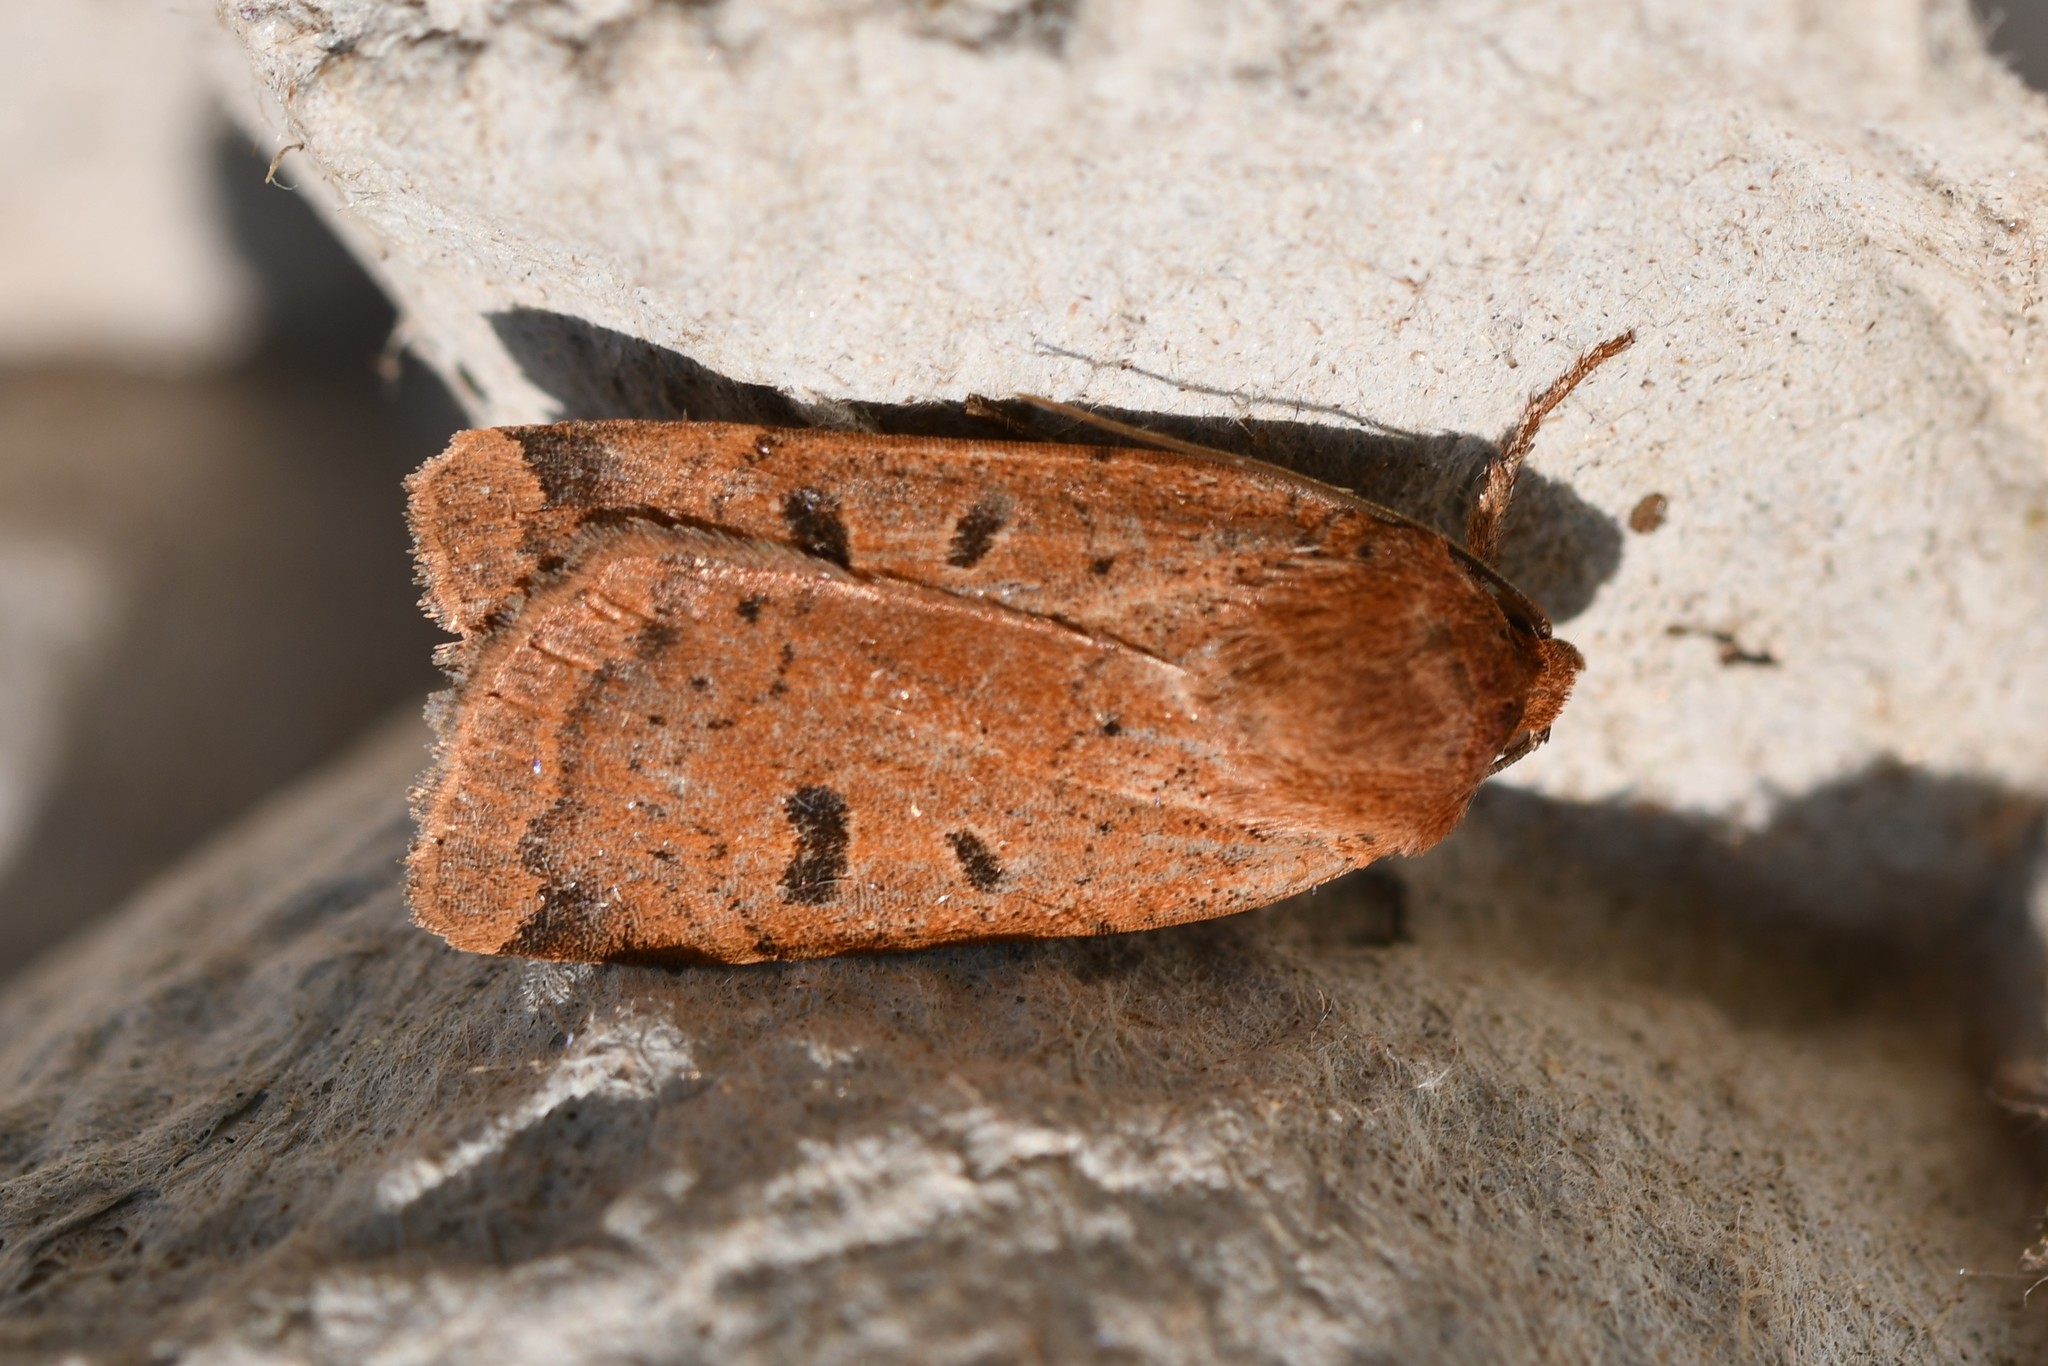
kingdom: Animalia
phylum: Arthropoda
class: Insecta
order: Lepidoptera
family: Noctuidae
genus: Noctua
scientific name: Noctua comes
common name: Lesser yellow underwing
